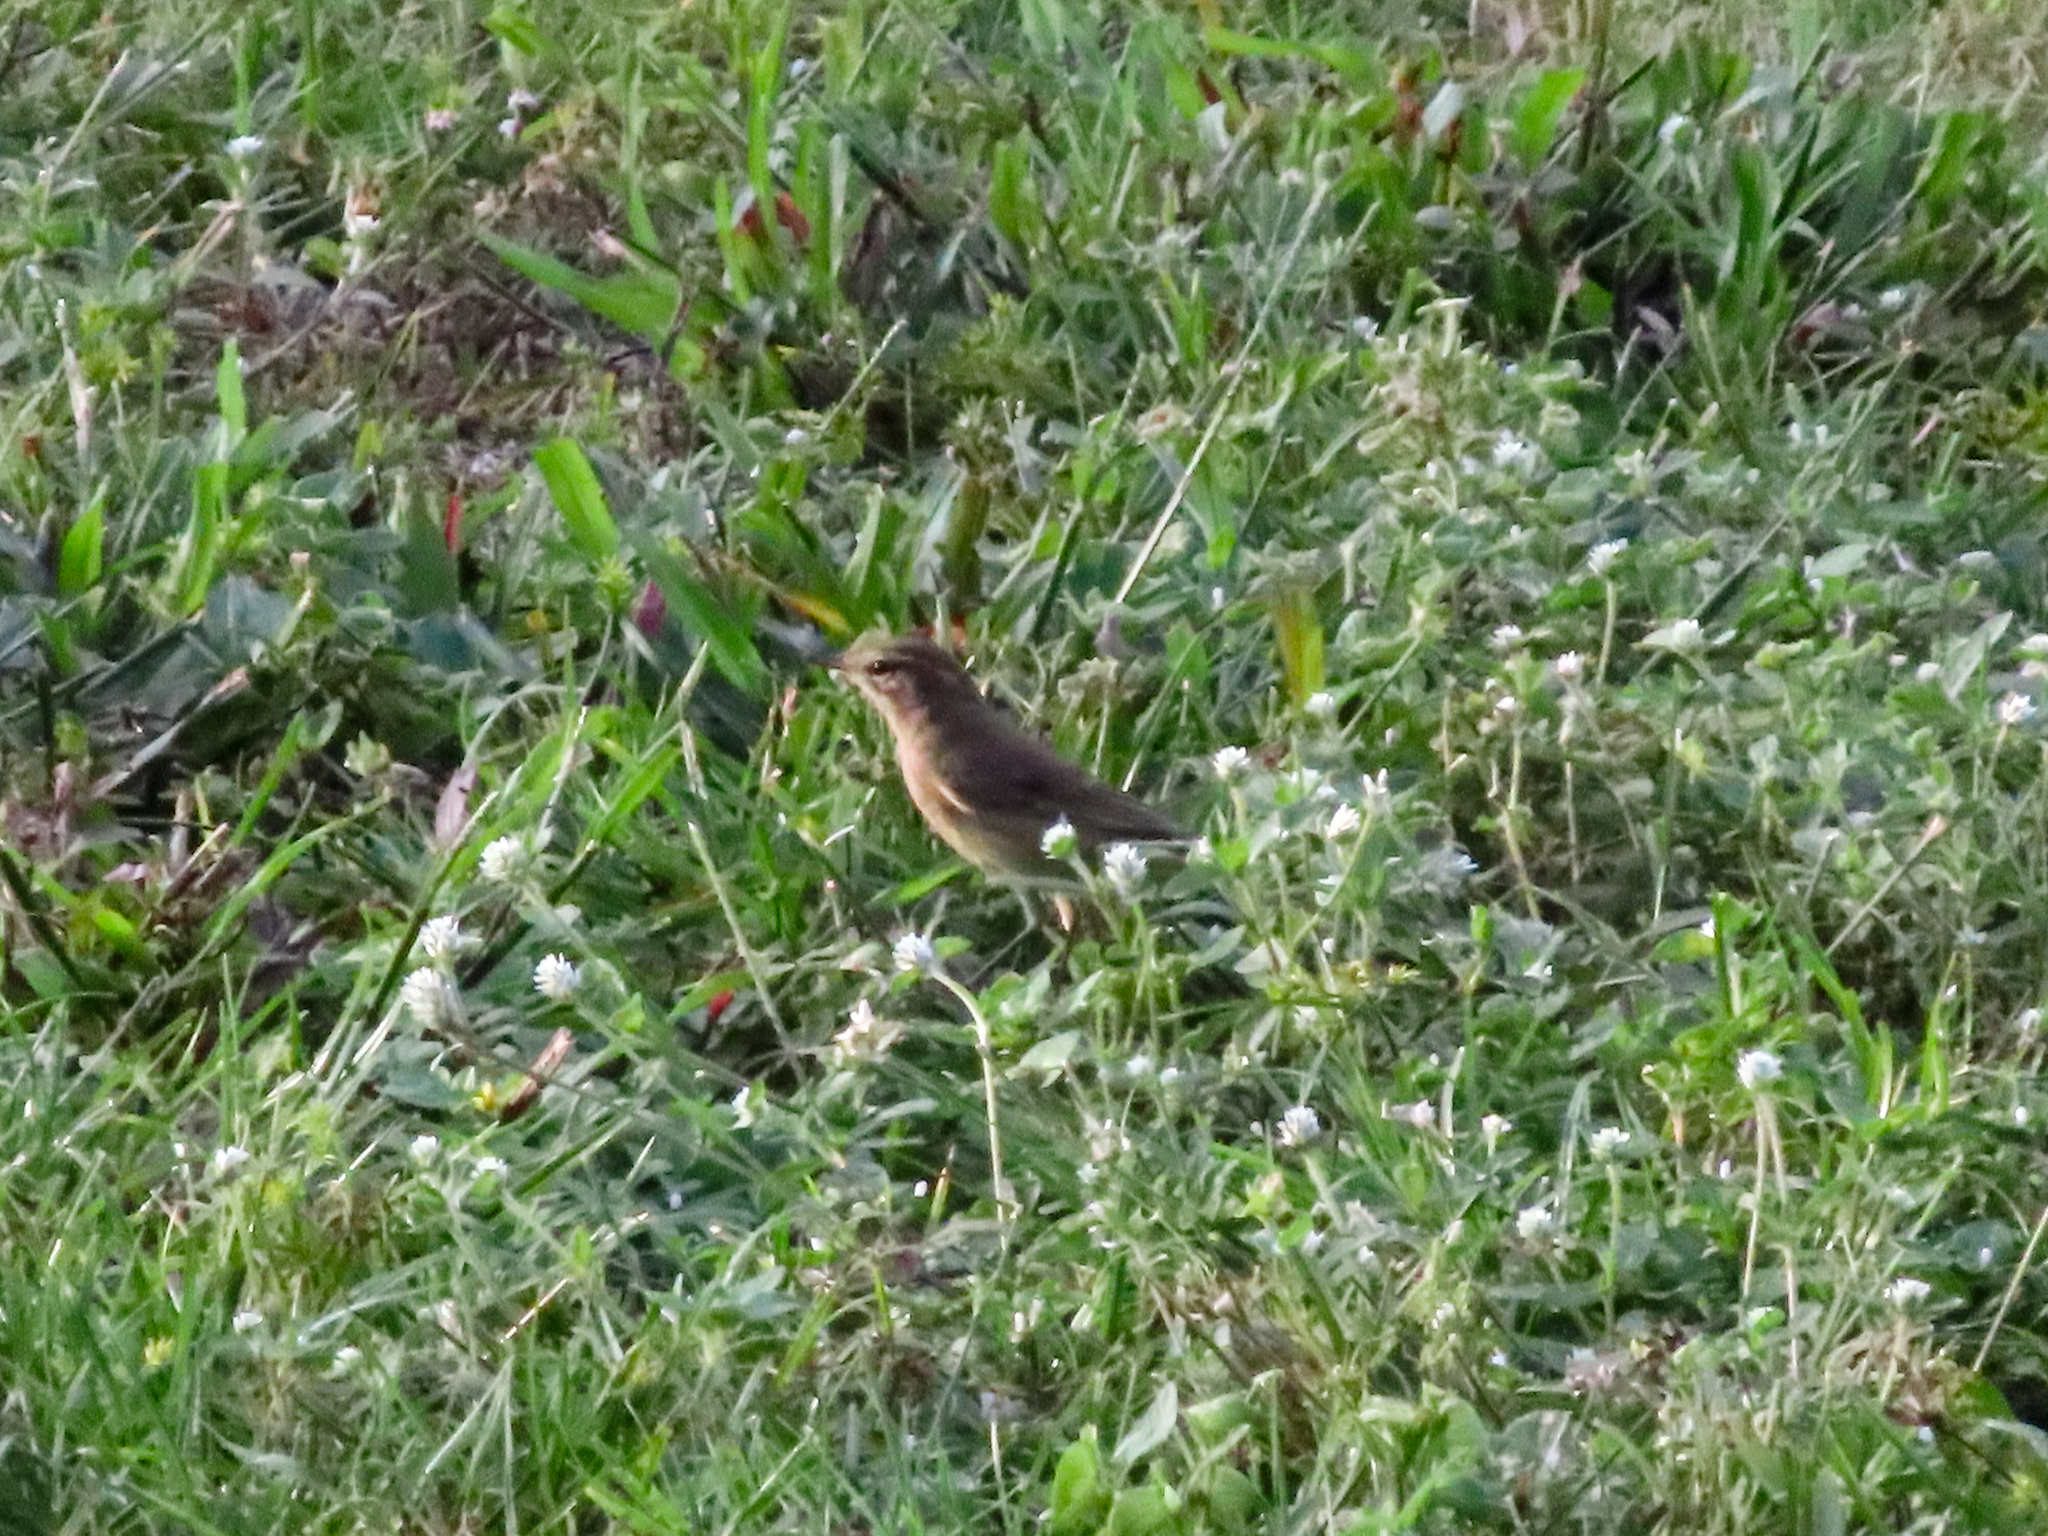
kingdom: Animalia
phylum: Chordata
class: Aves
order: Passeriformes
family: Parulidae
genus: Setophaga
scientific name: Setophaga palmarum
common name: Palm warbler
